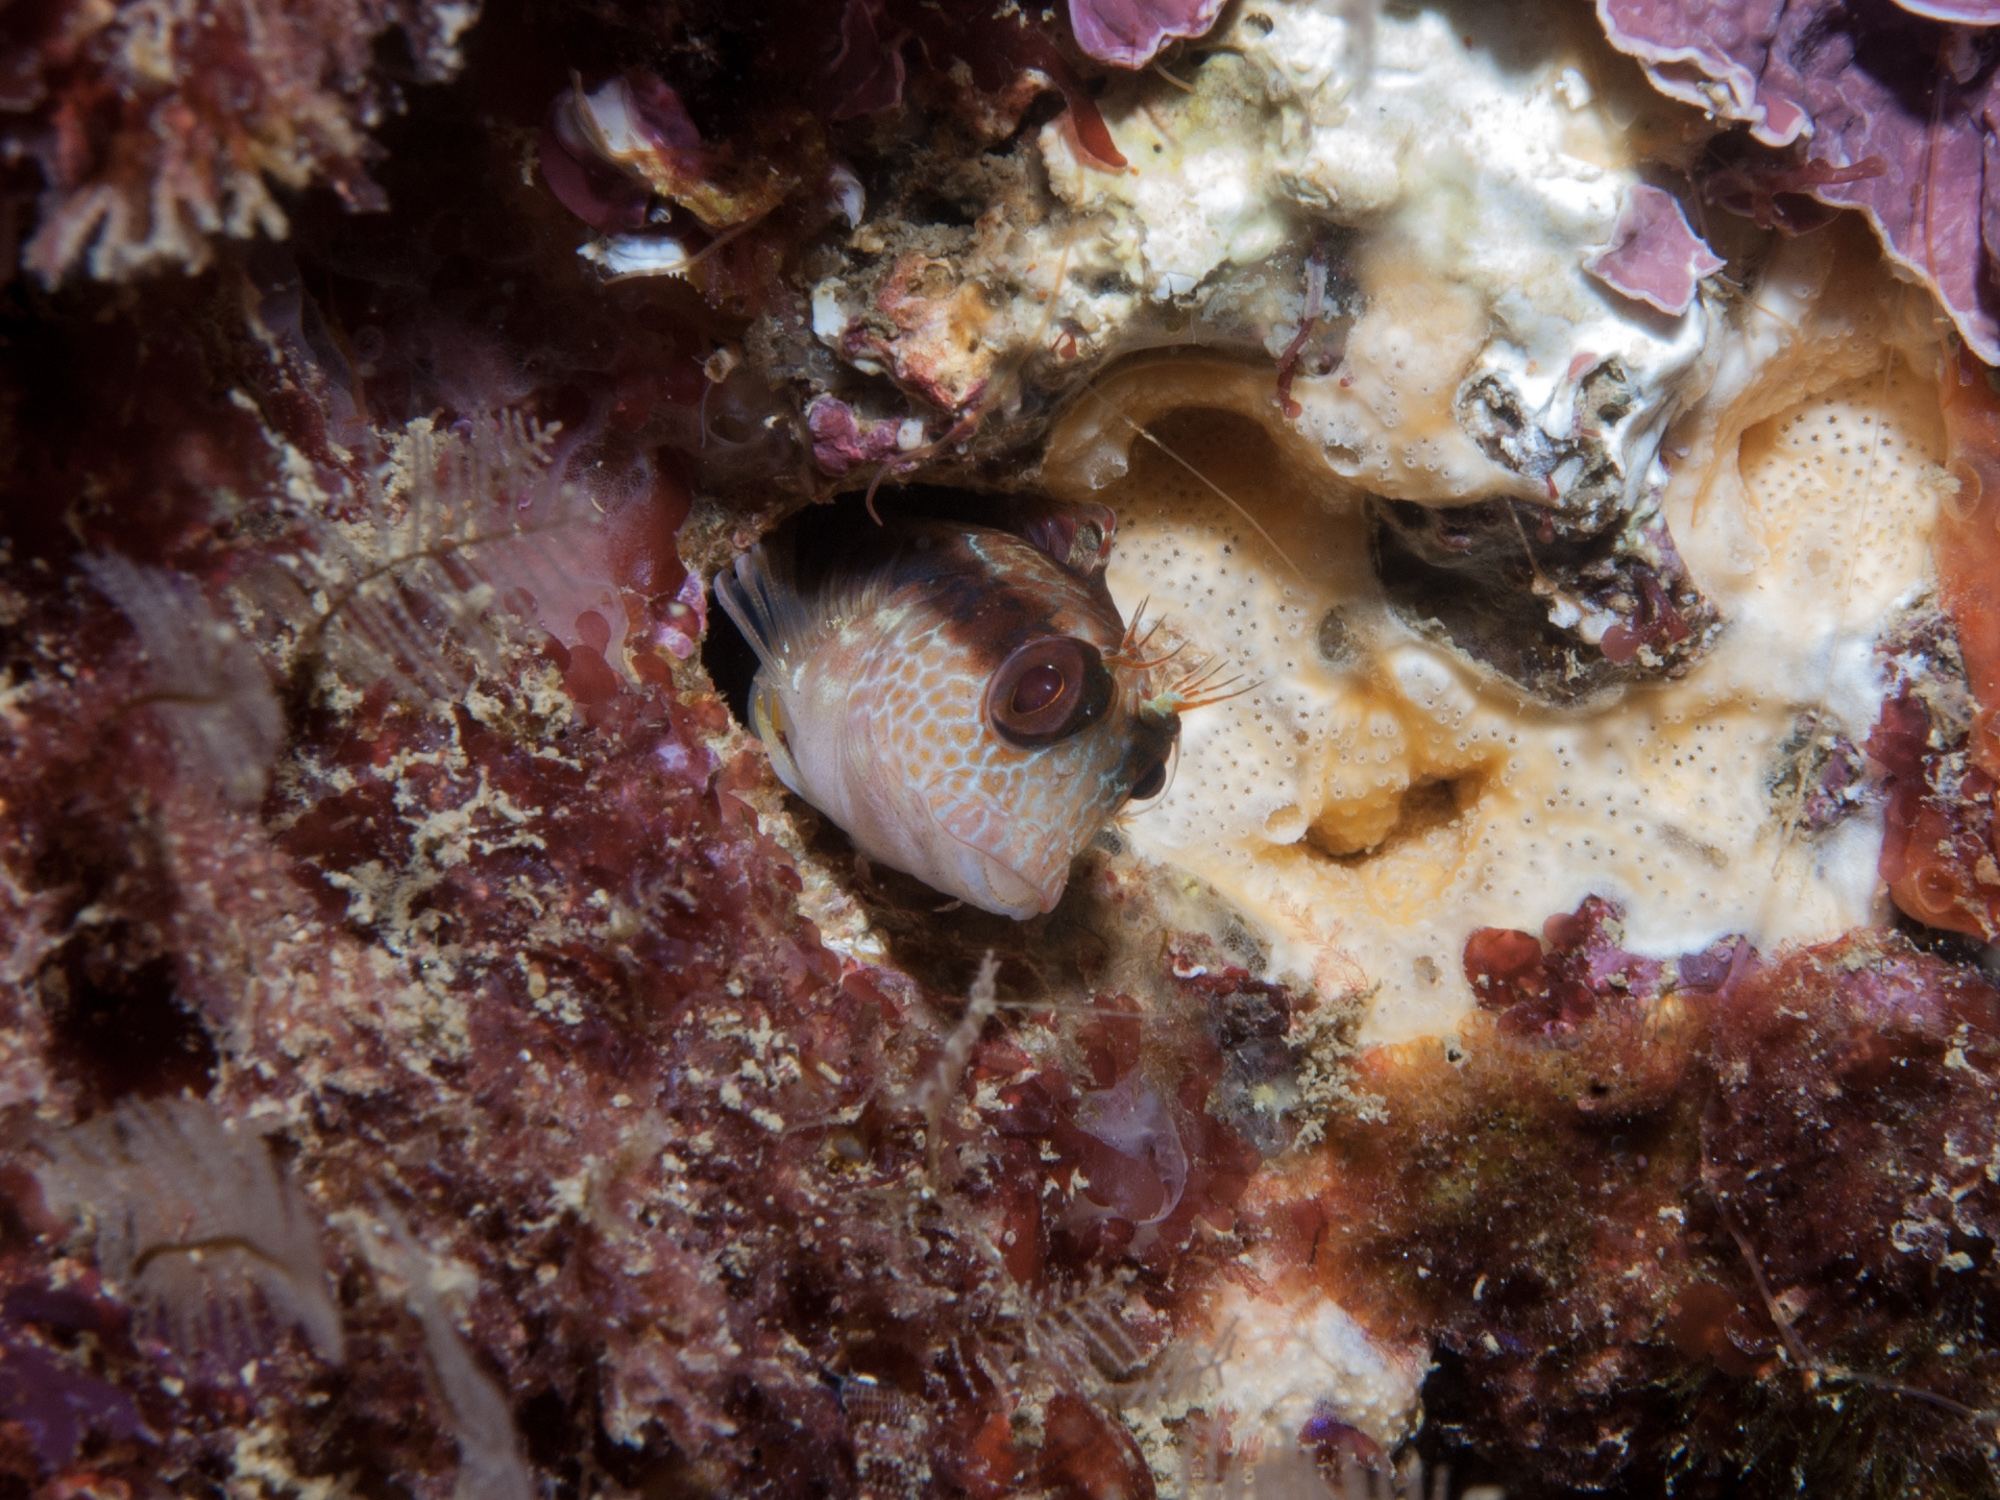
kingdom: Animalia
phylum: Chordata
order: Perciformes
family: Blenniidae
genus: Parablennius
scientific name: Parablennius pilicornis
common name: Ringneck blenny
